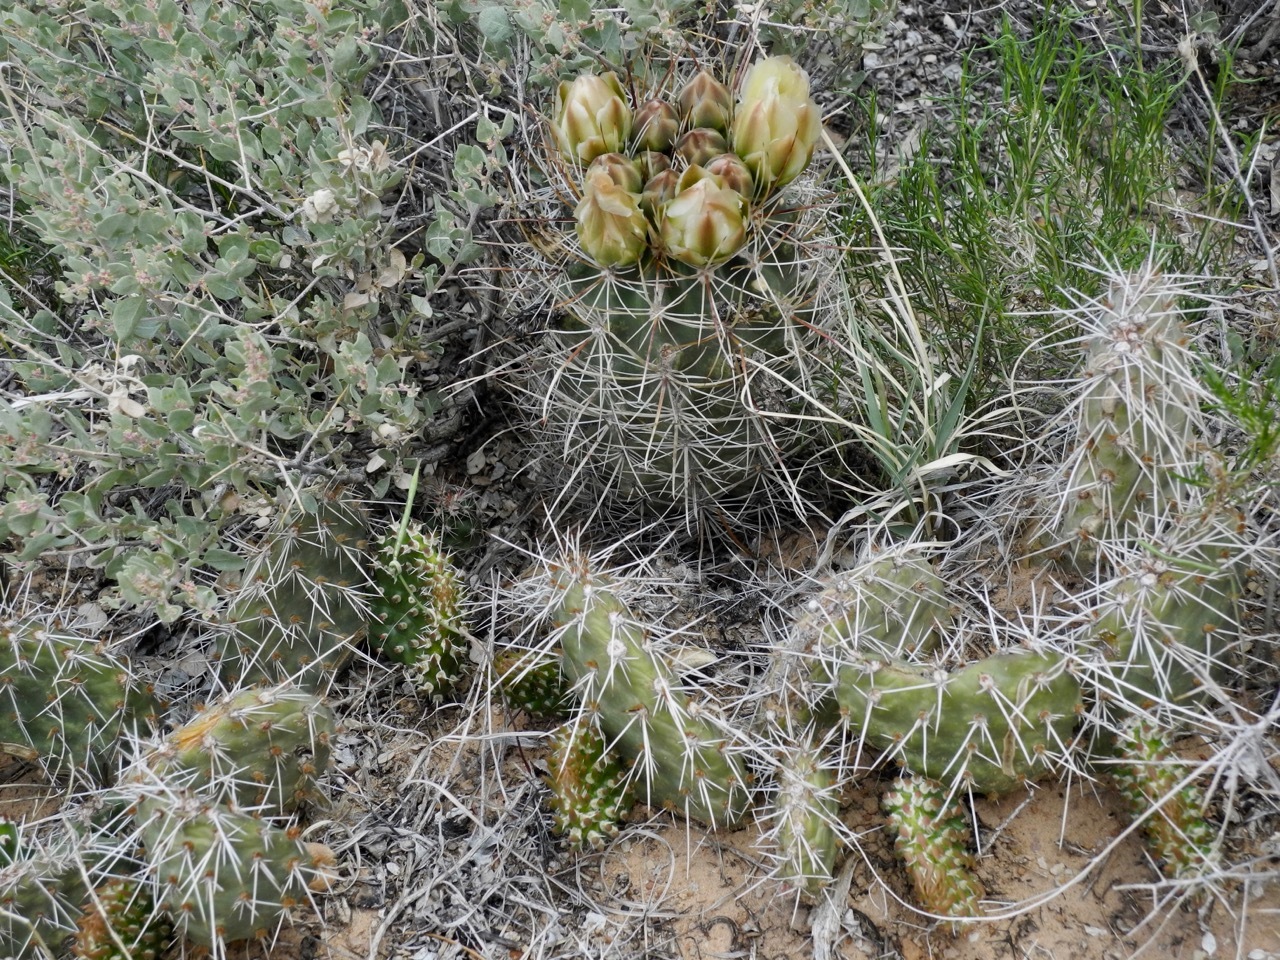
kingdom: Plantae
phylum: Tracheophyta
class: Magnoliopsida
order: Caryophyllales
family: Cactaceae
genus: Sclerocactus
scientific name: Sclerocactus parviflorus
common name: Small-flower fishhook cactus
